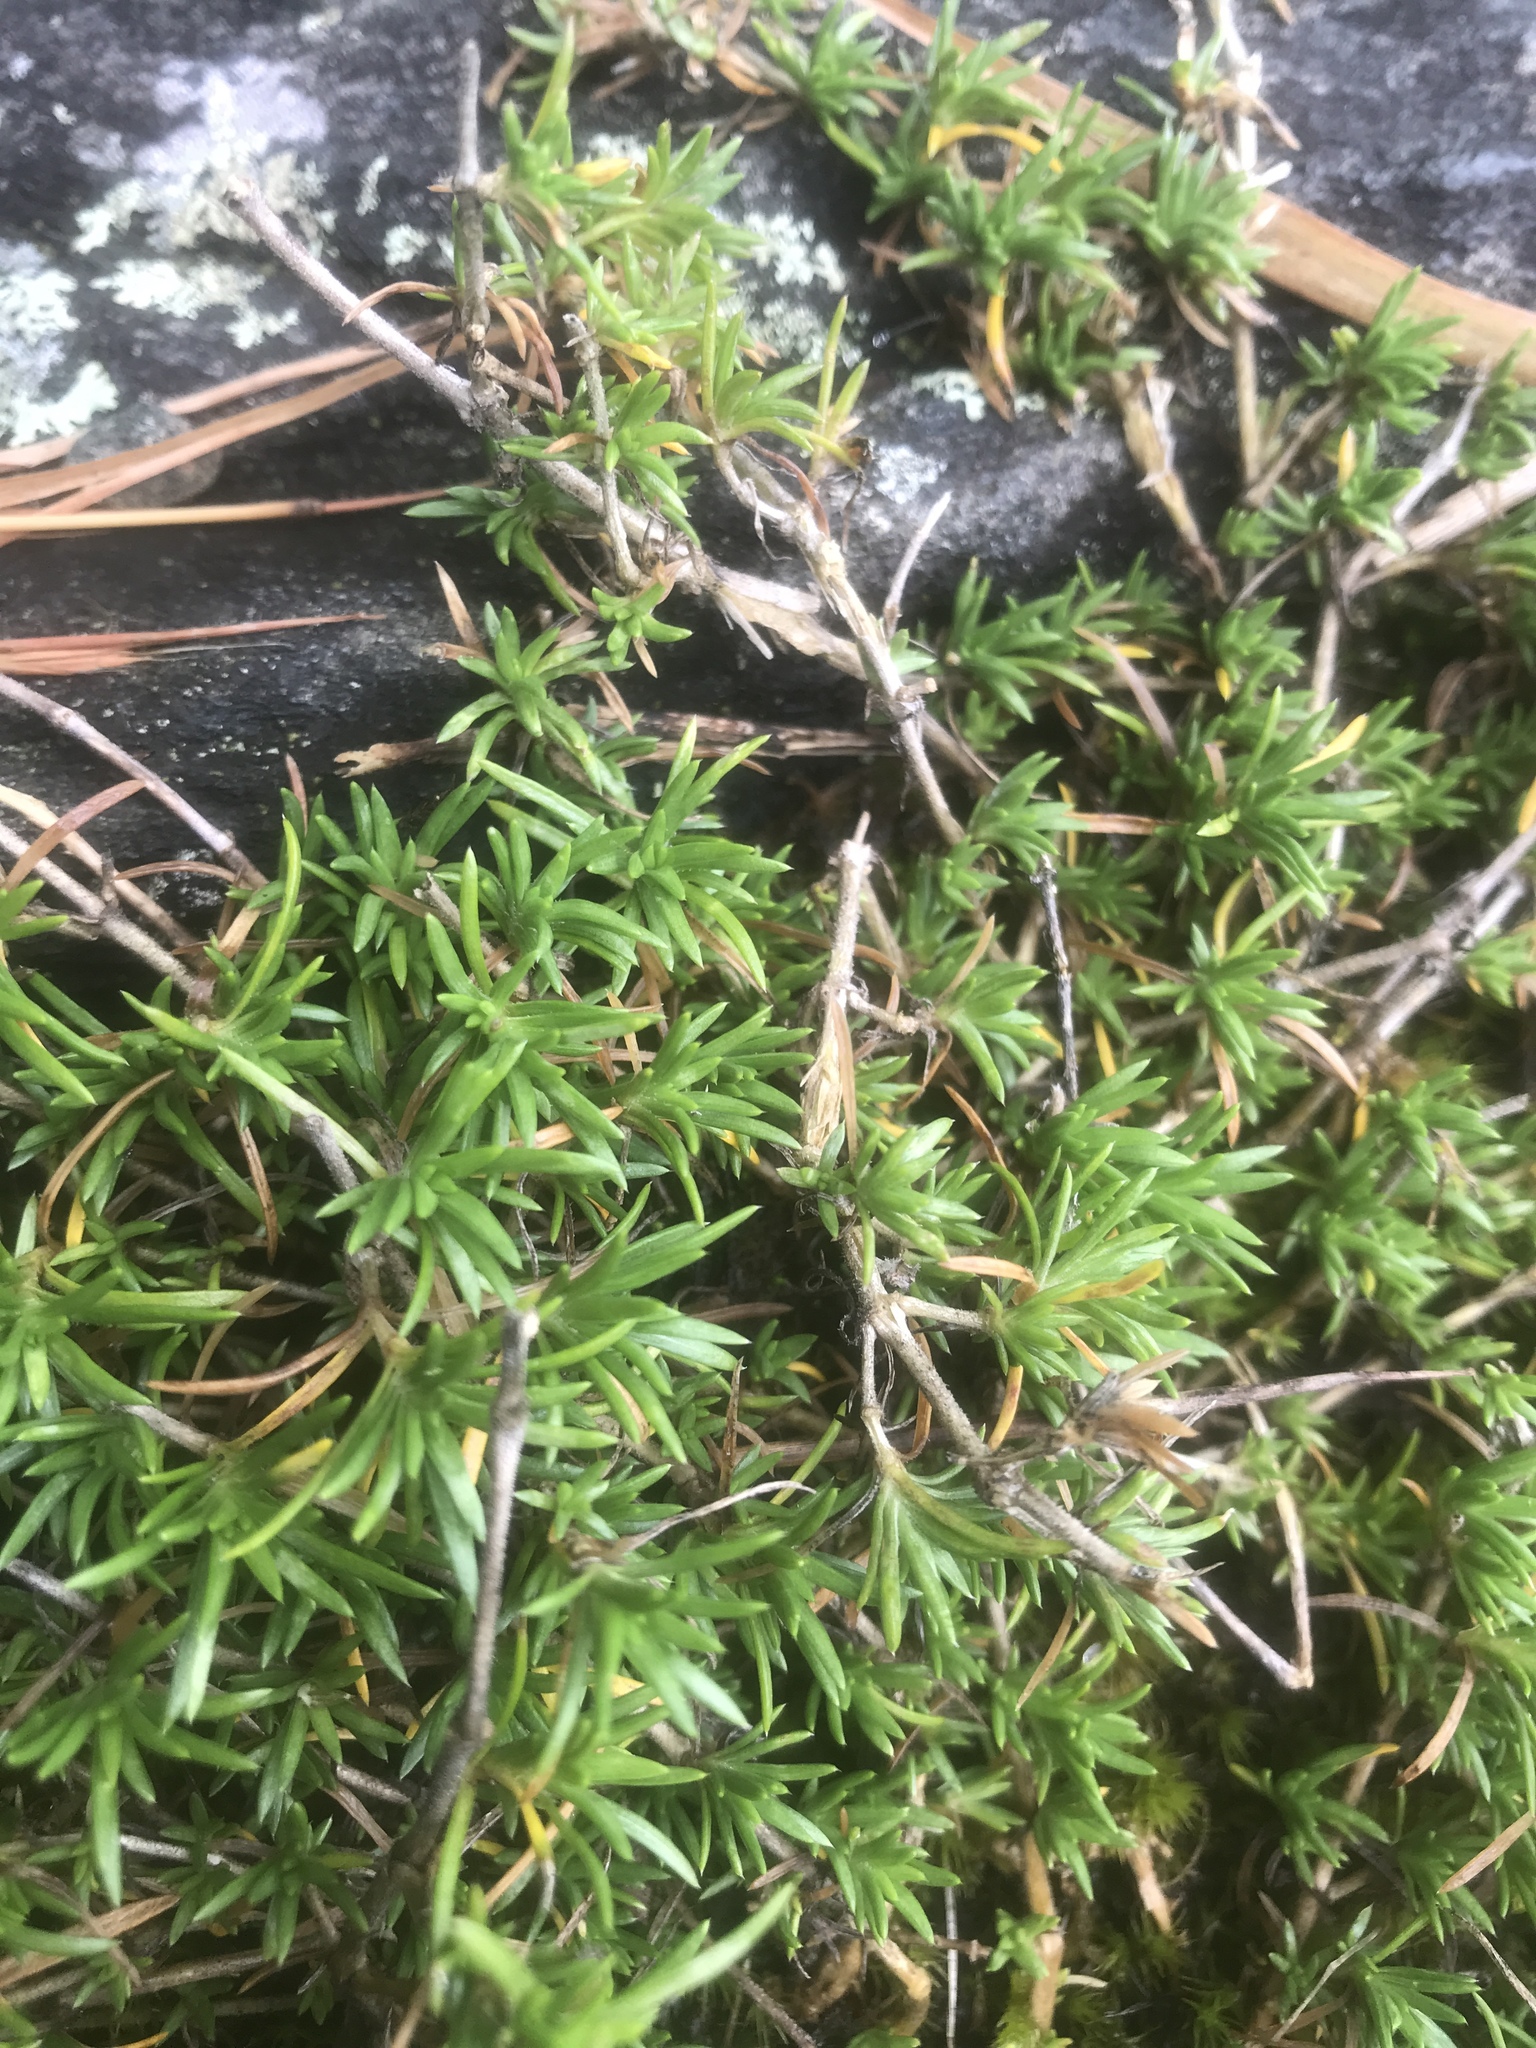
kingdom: Plantae
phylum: Tracheophyta
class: Magnoliopsida
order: Ericales
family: Polemoniaceae
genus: Phlox
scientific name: Phlox subulata
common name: Moss phlox
